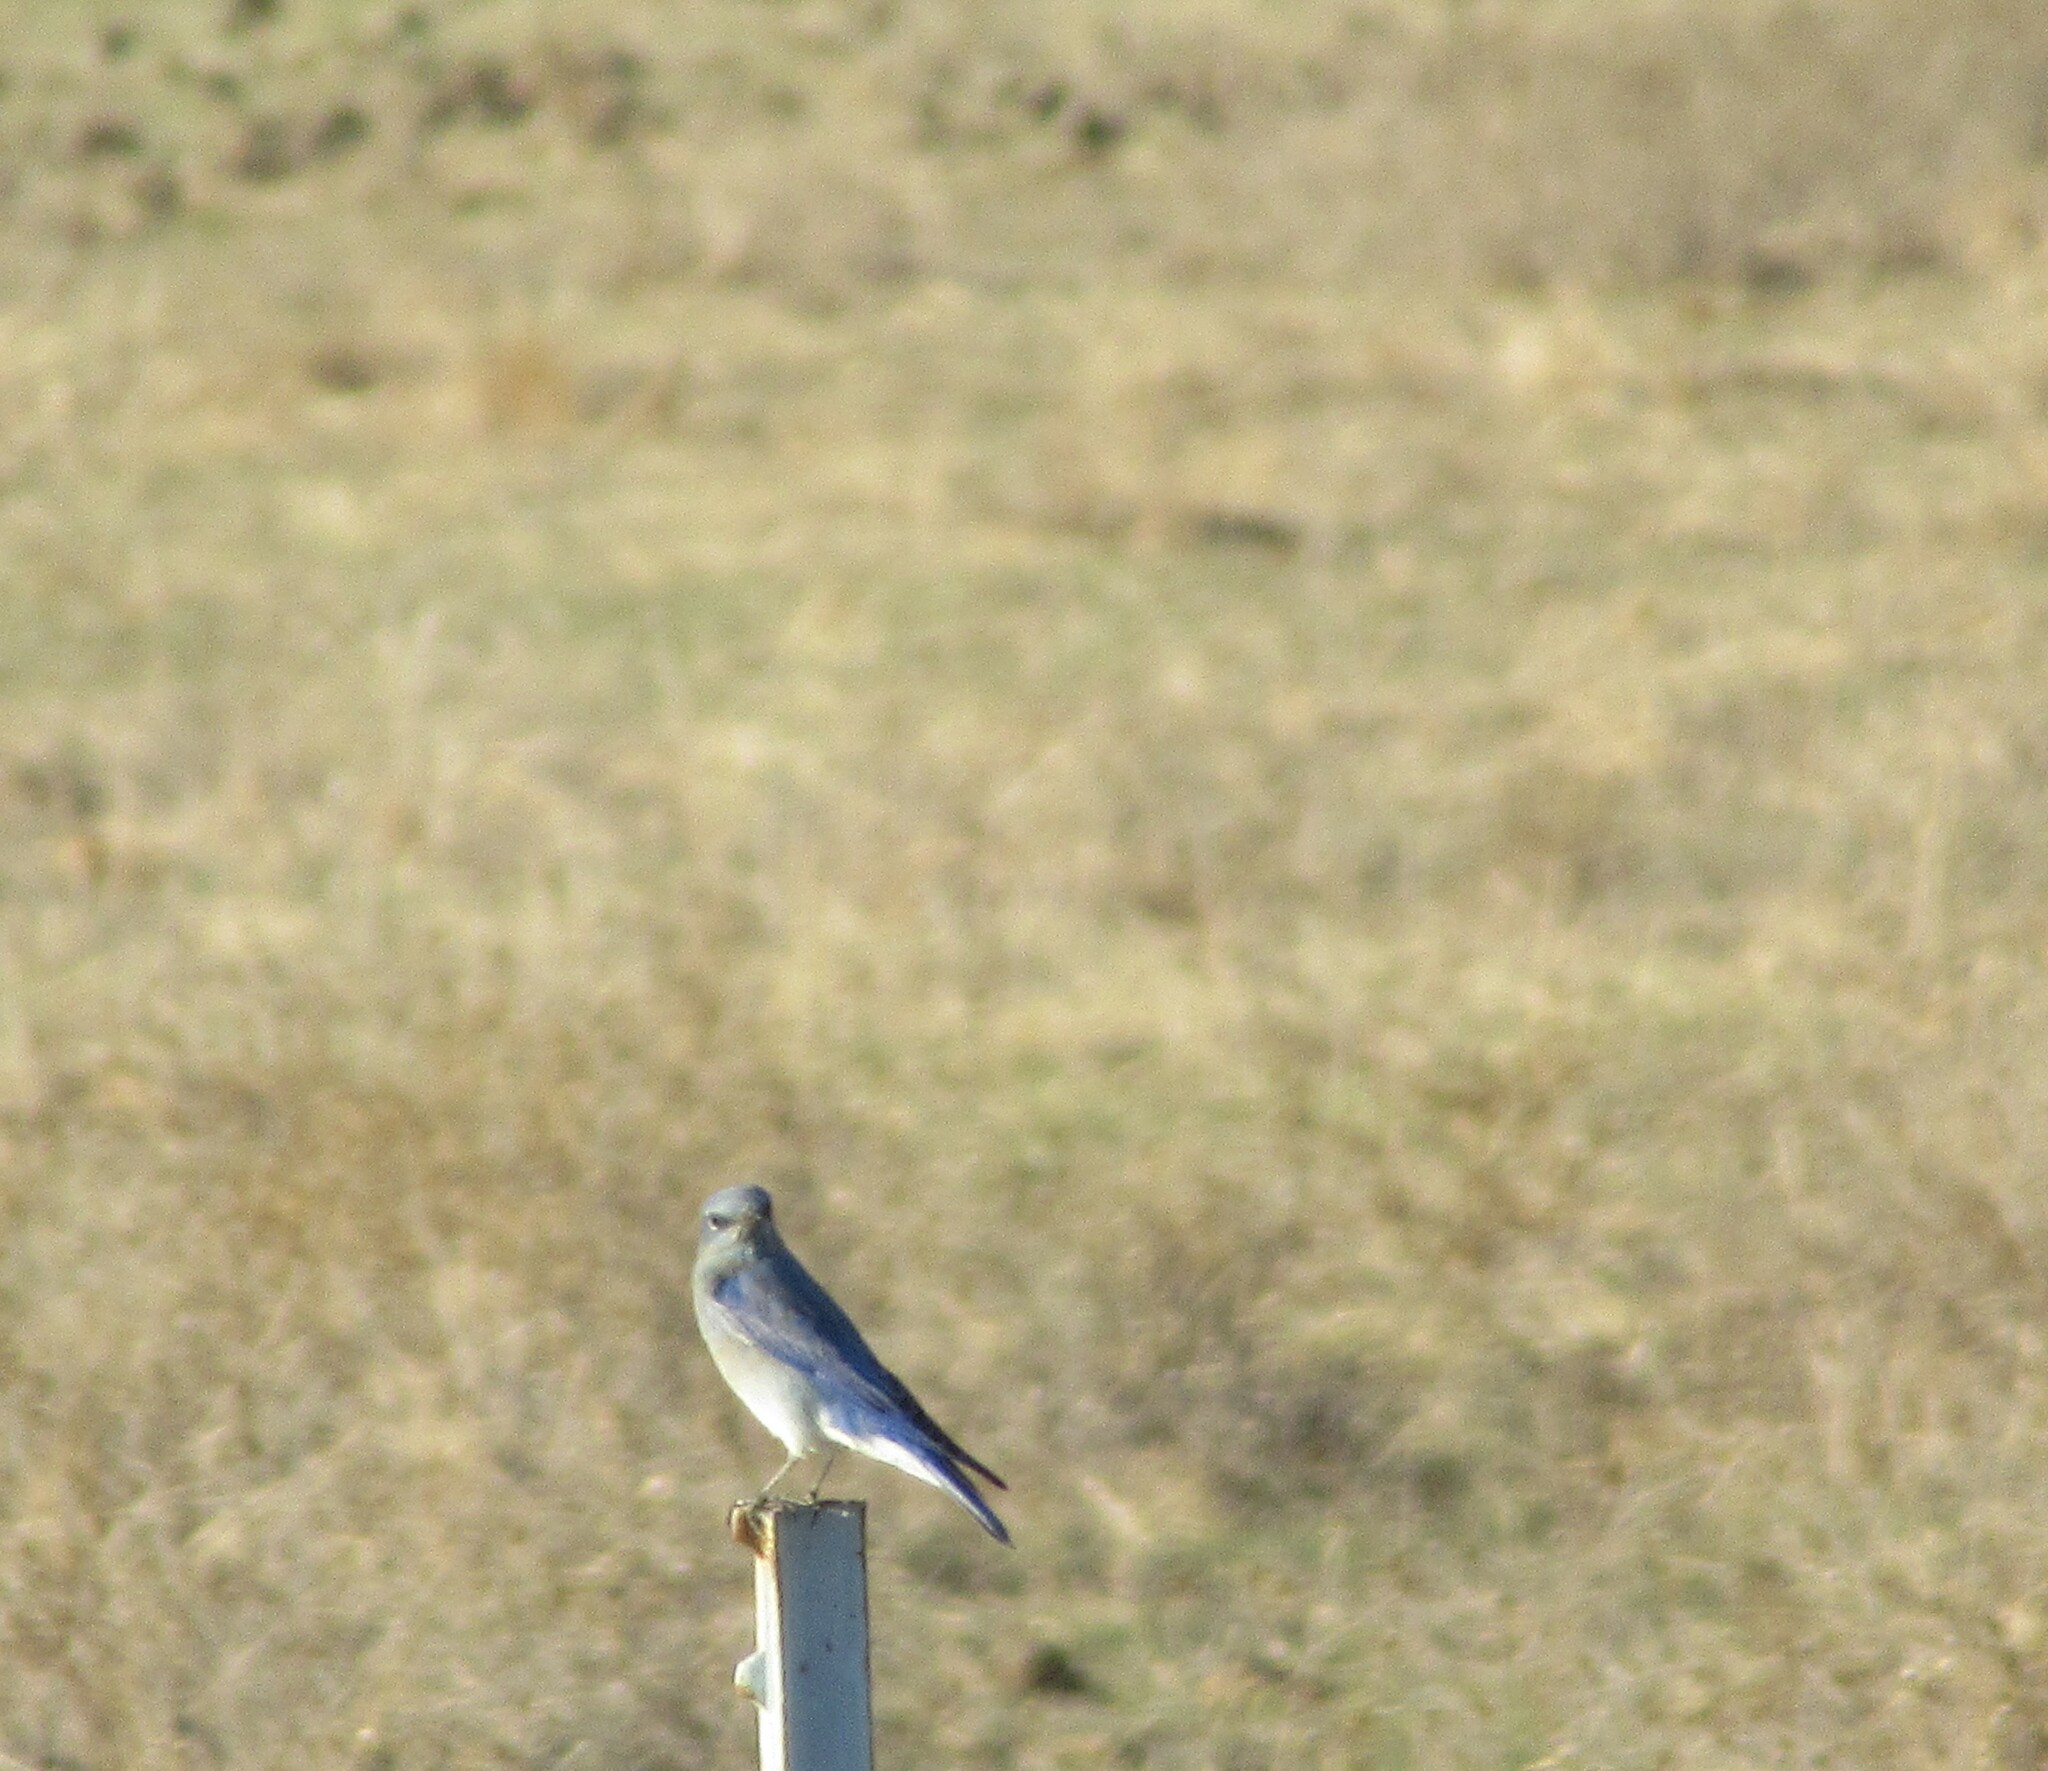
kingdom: Animalia
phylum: Chordata
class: Aves
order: Passeriformes
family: Turdidae
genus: Sialia
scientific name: Sialia currucoides
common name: Mountain bluebird
